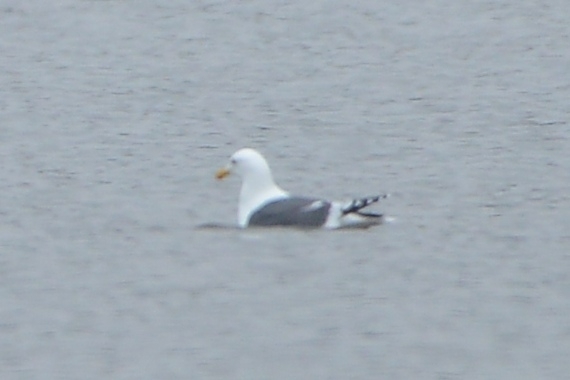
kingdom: Animalia
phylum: Chordata
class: Aves
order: Charadriiformes
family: Laridae
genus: Larus
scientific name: Larus schistisagus
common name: Slaty-backed gull
